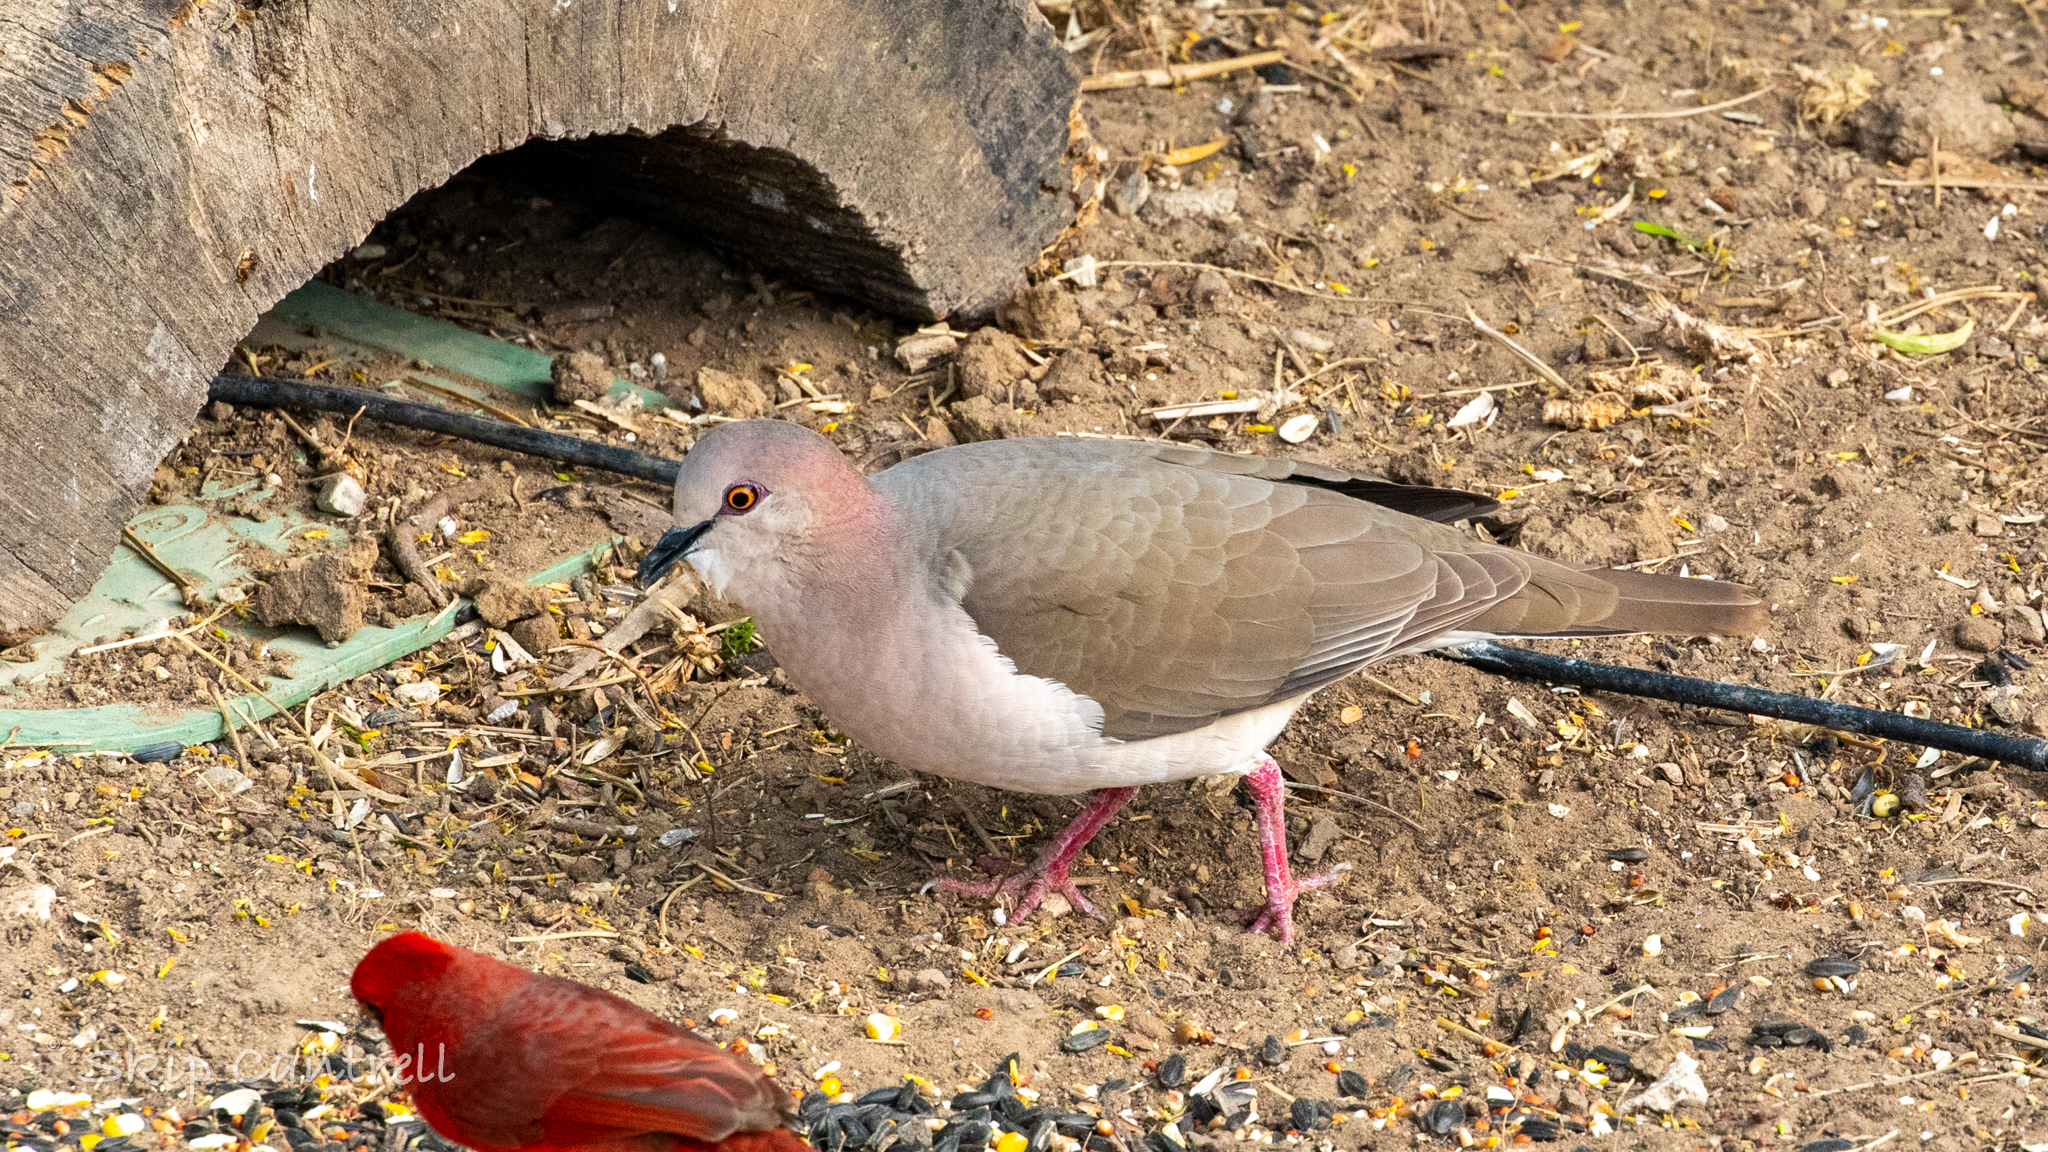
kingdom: Animalia
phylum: Chordata
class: Aves
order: Columbiformes
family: Columbidae
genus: Leptotila
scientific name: Leptotila verreauxi
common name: White-tipped dove
